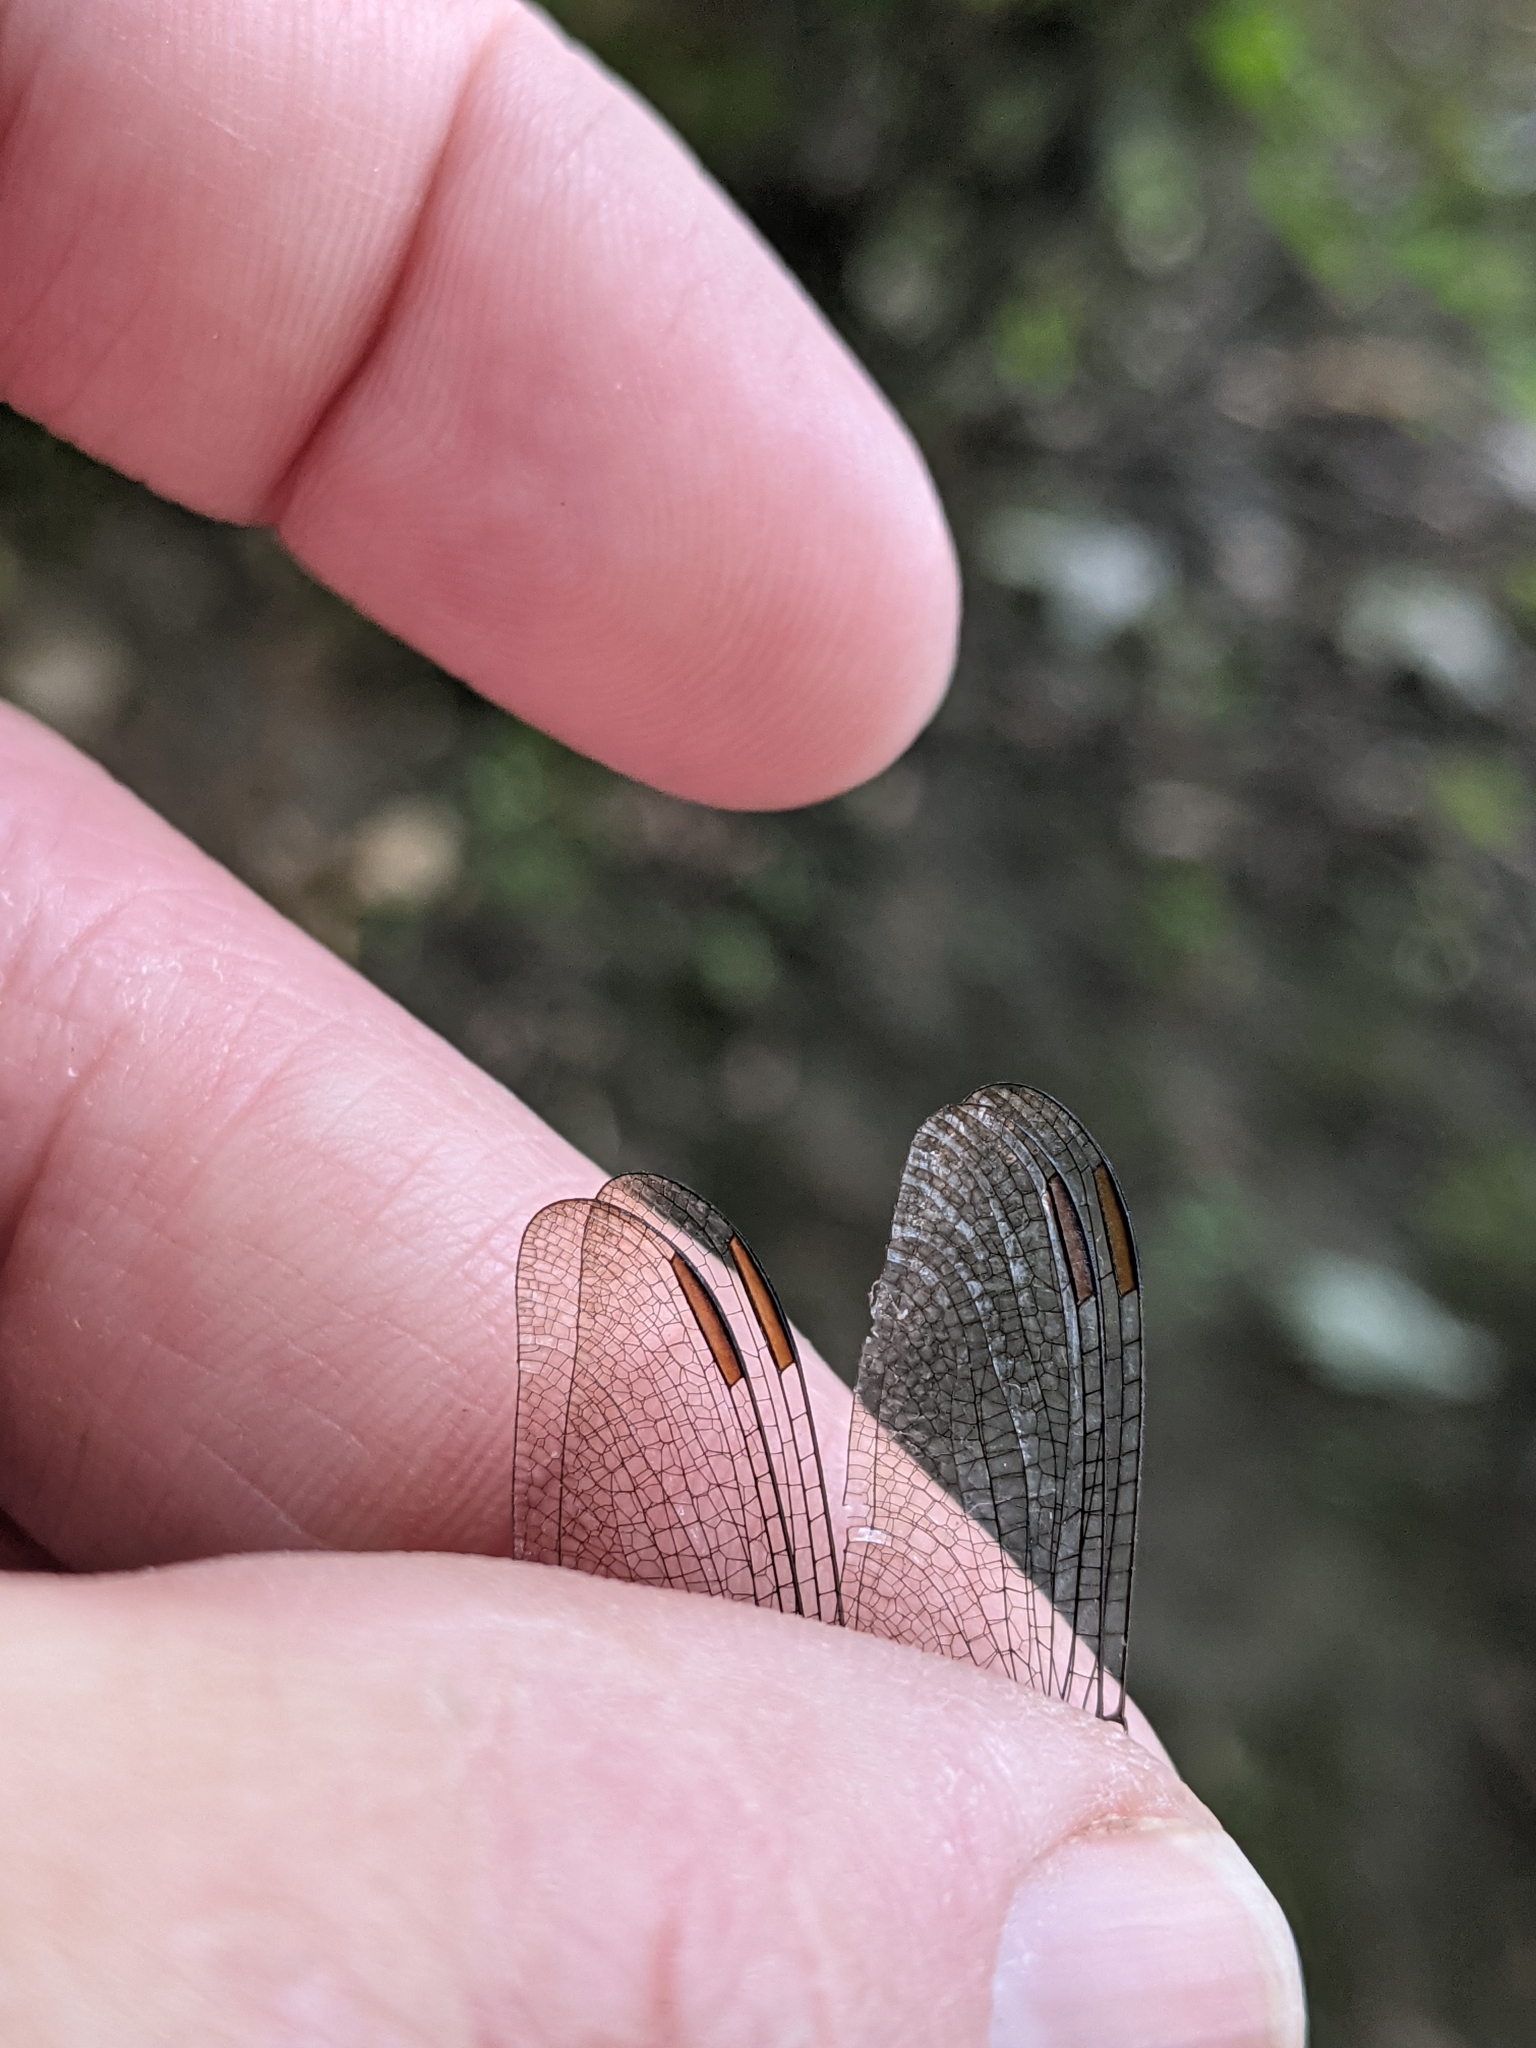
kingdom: Animalia
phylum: Arthropoda
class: Insecta
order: Odonata
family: Libellulidae
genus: Erythemis
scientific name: Erythemis simplicicollis
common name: Eastern pondhawk
